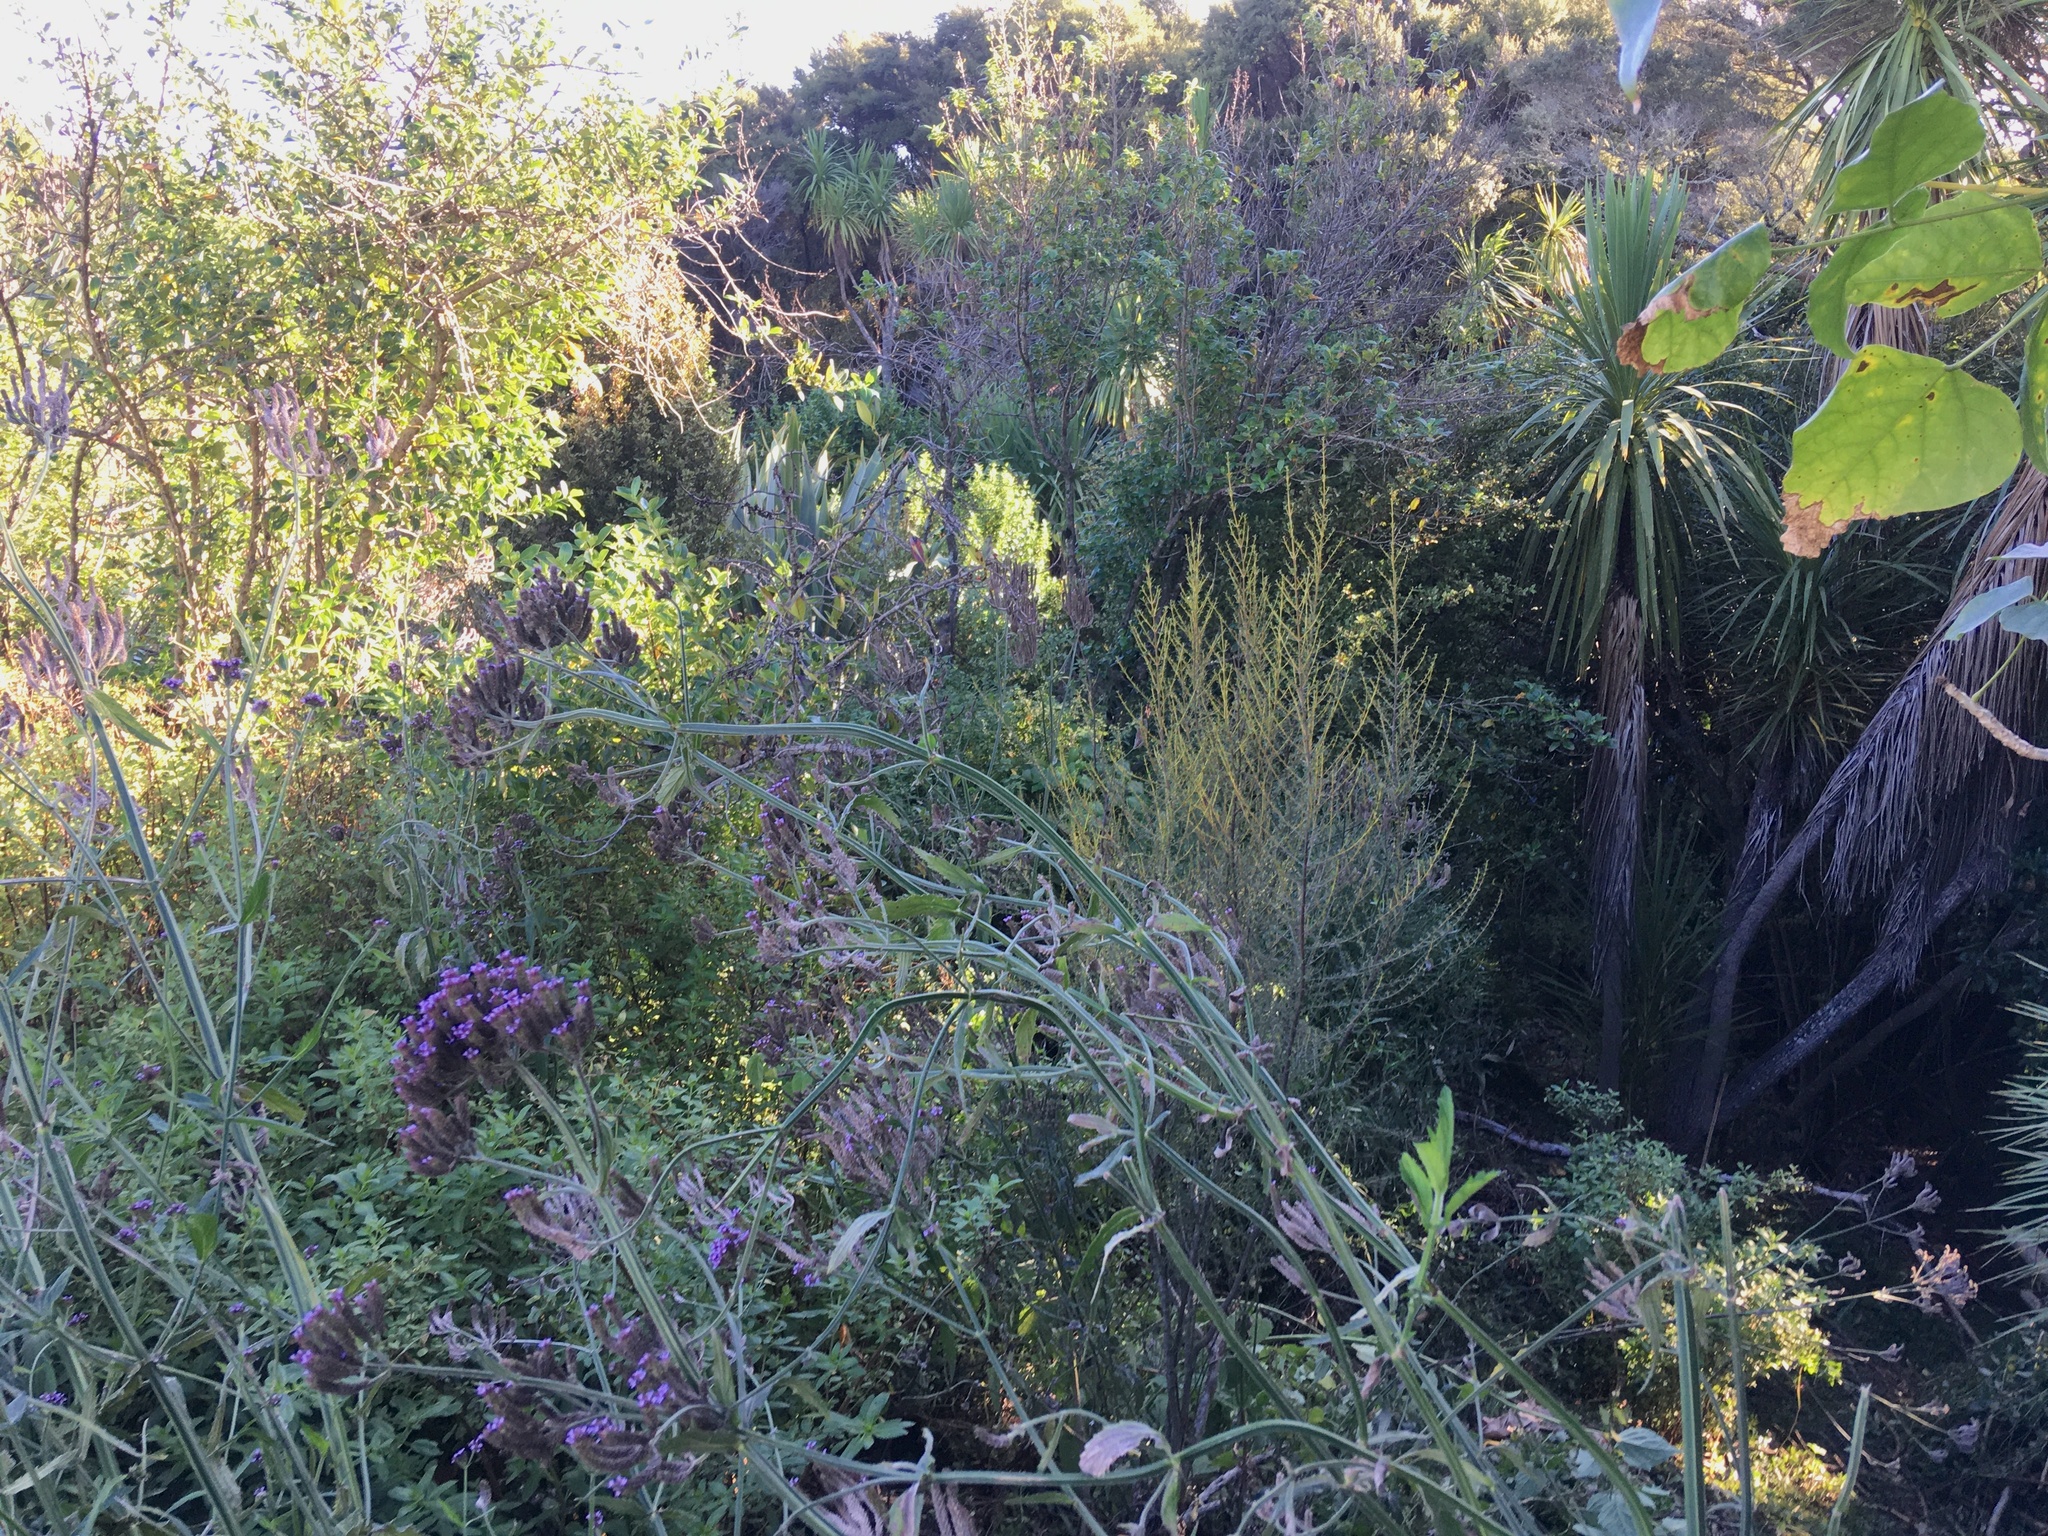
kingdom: Plantae
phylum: Tracheophyta
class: Magnoliopsida
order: Lamiales
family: Verbenaceae
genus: Verbena
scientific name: Verbena incompta
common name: Purpletop vervain
